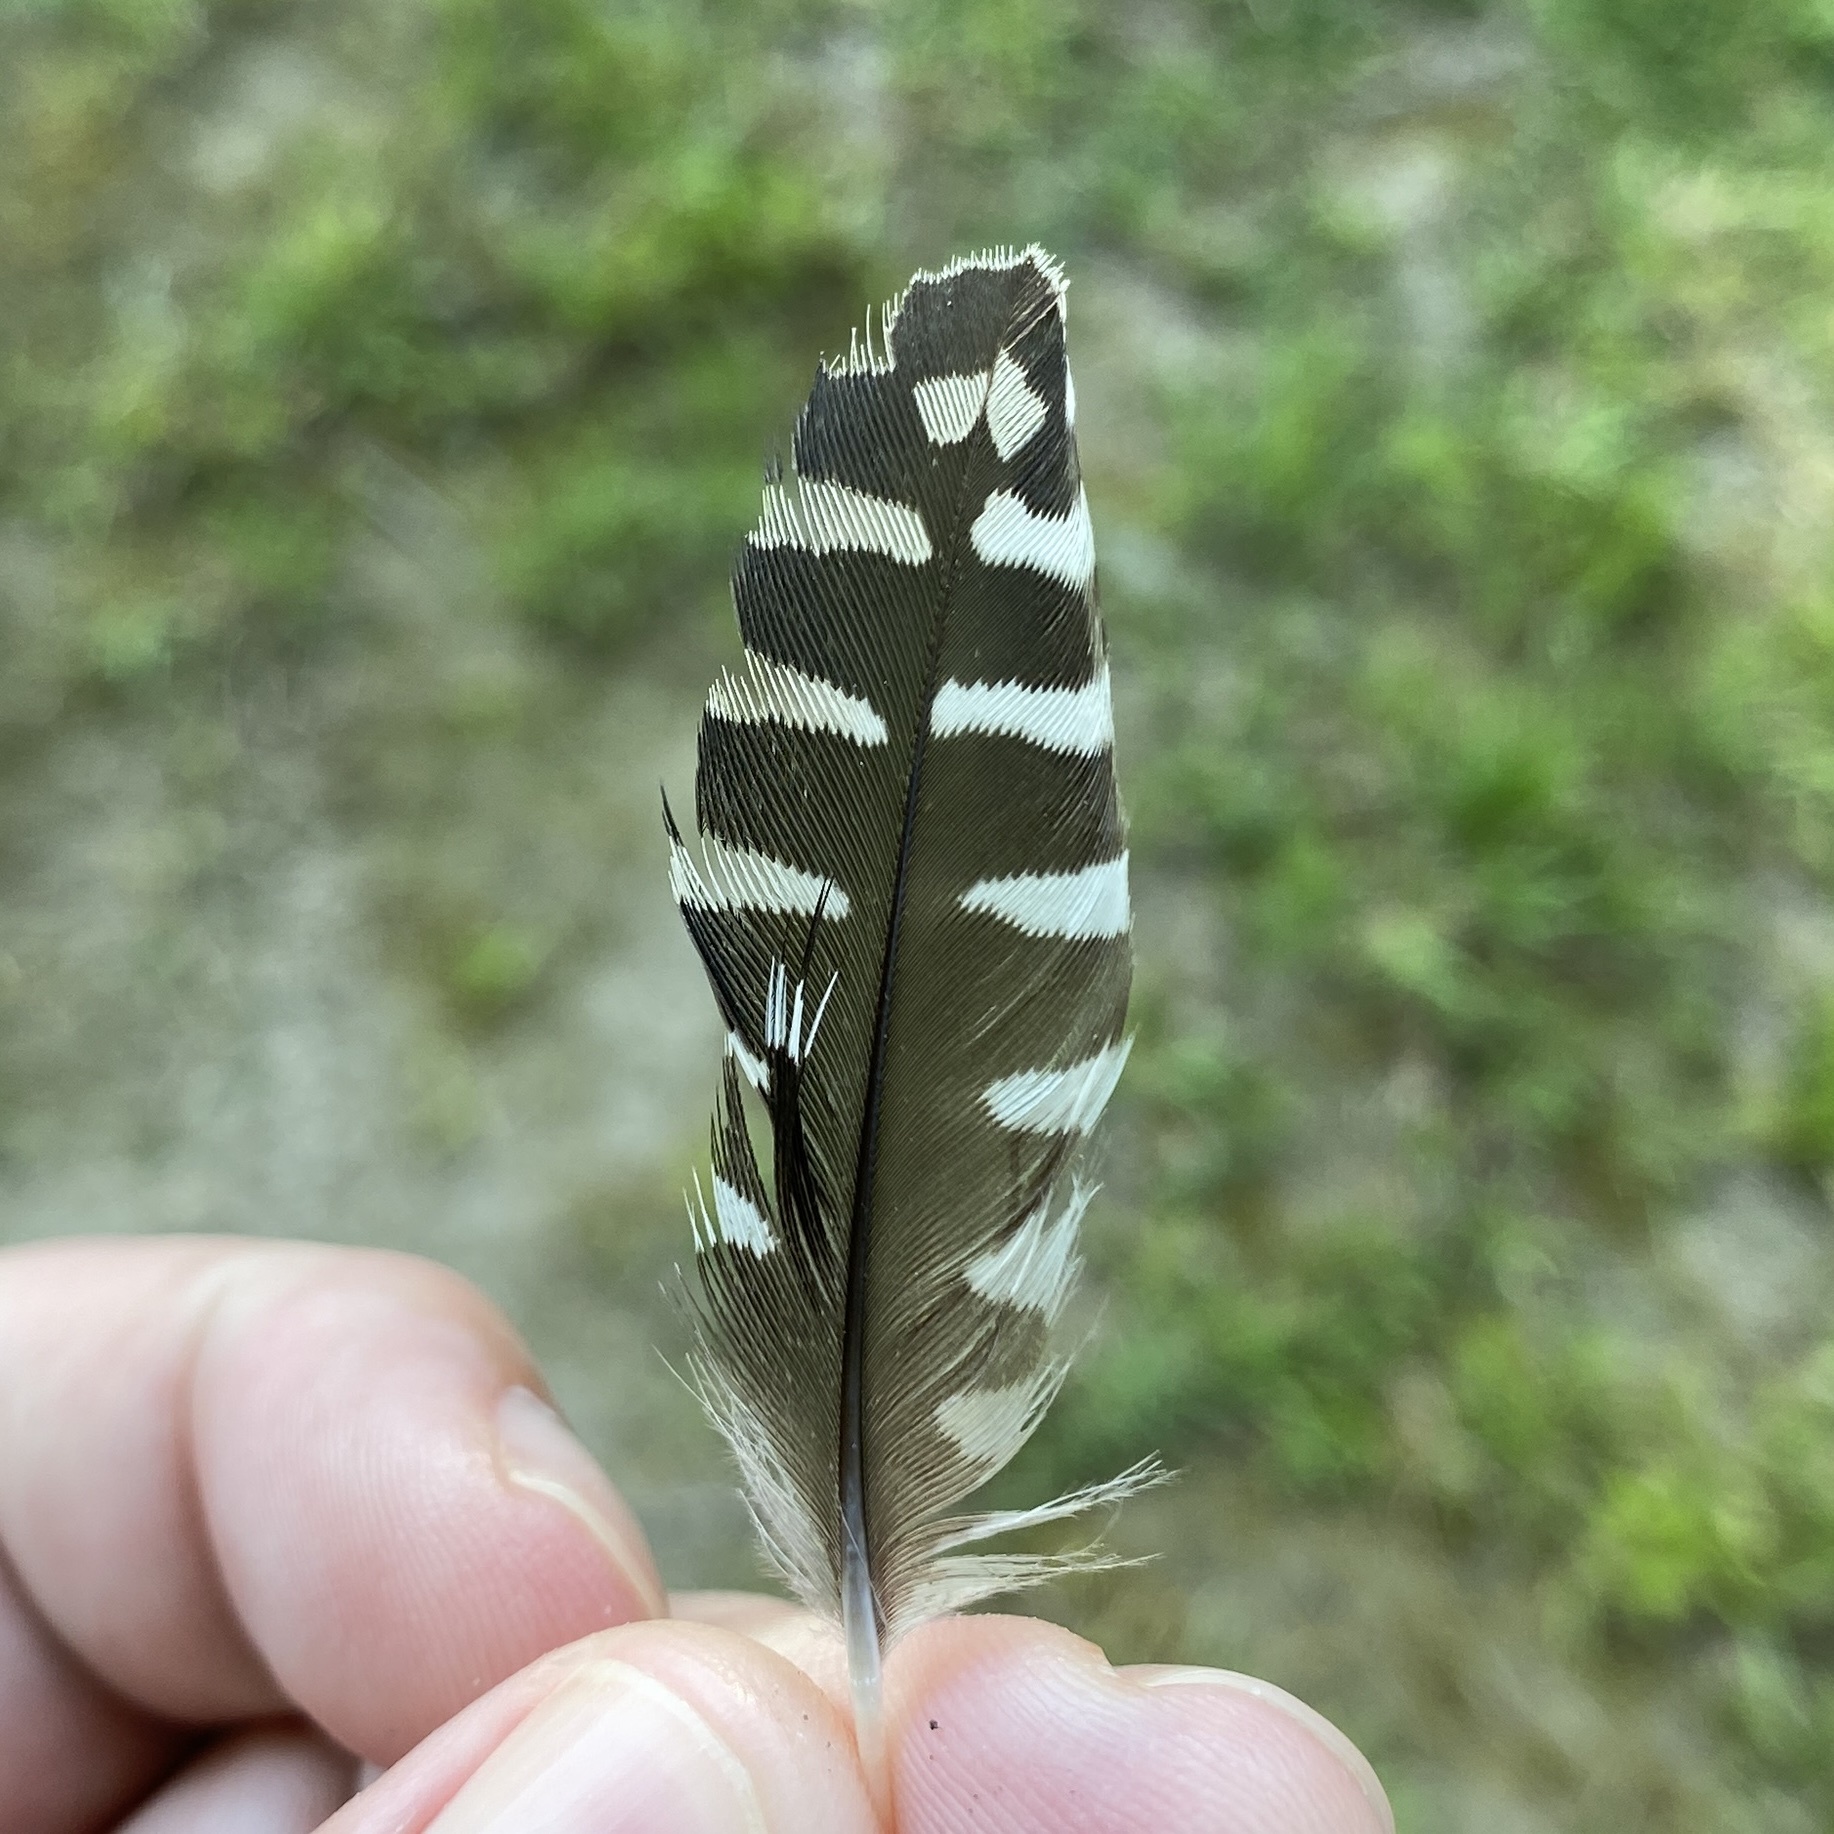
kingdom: Animalia
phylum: Chordata
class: Aves
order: Piciformes
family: Picidae
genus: Melanerpes
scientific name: Melanerpes carolinus
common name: Red-bellied woodpecker
